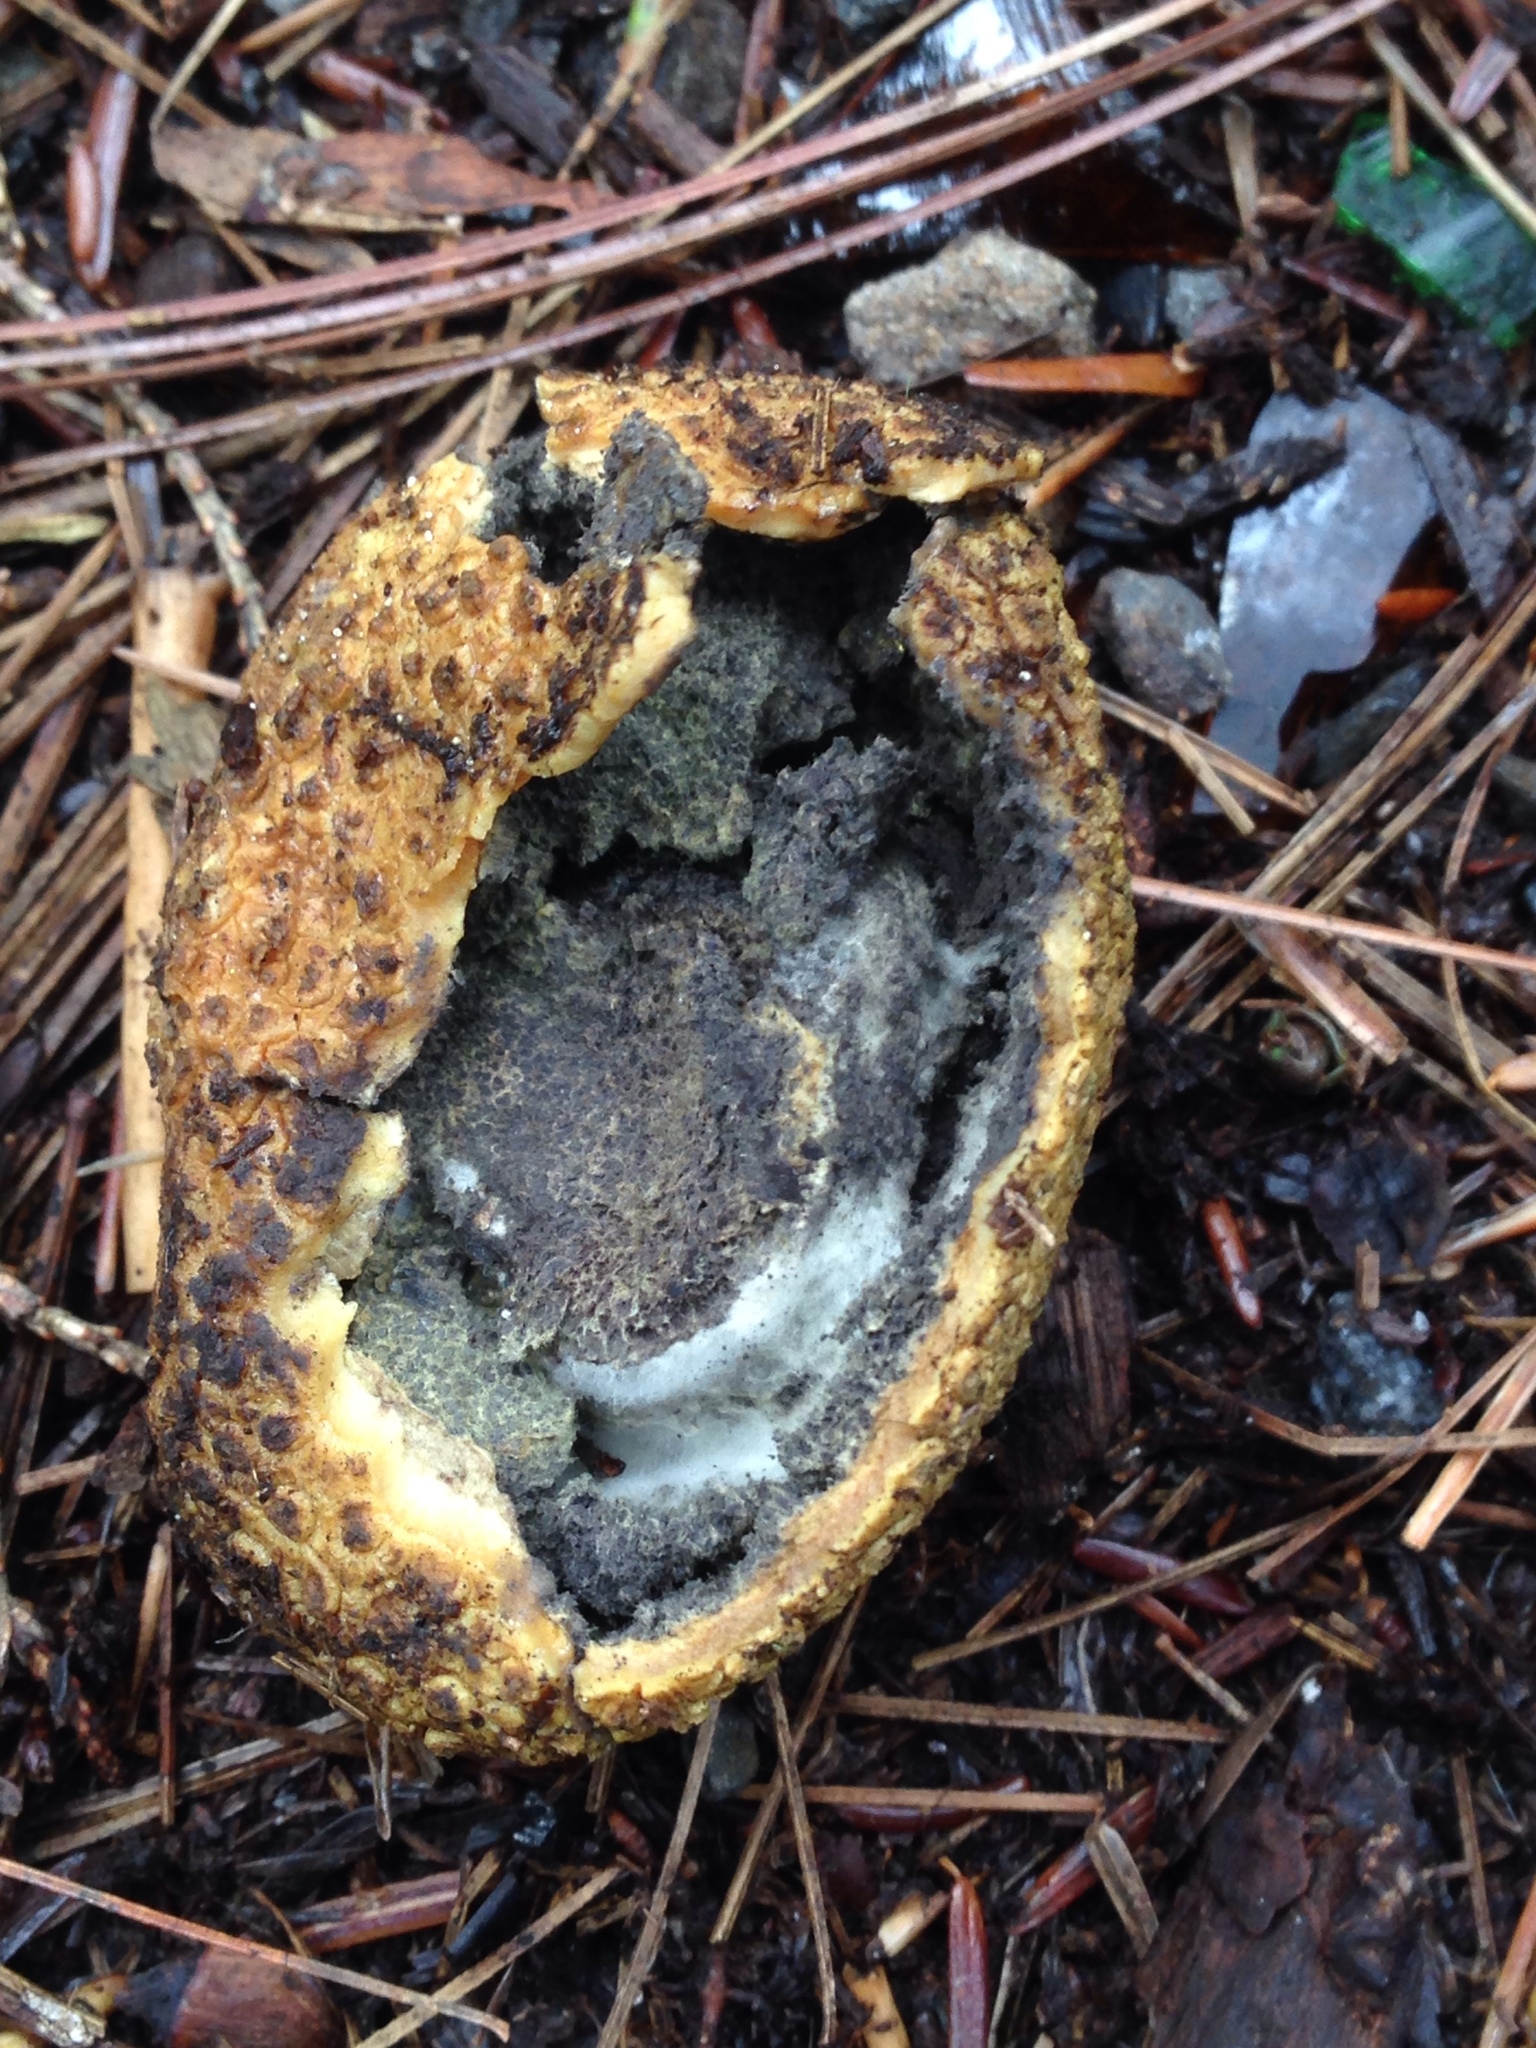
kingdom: Fungi
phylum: Basidiomycota
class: Agaricomycetes
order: Boletales
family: Sclerodermataceae
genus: Scleroderma
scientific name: Scleroderma citrinum
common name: Common earthball
